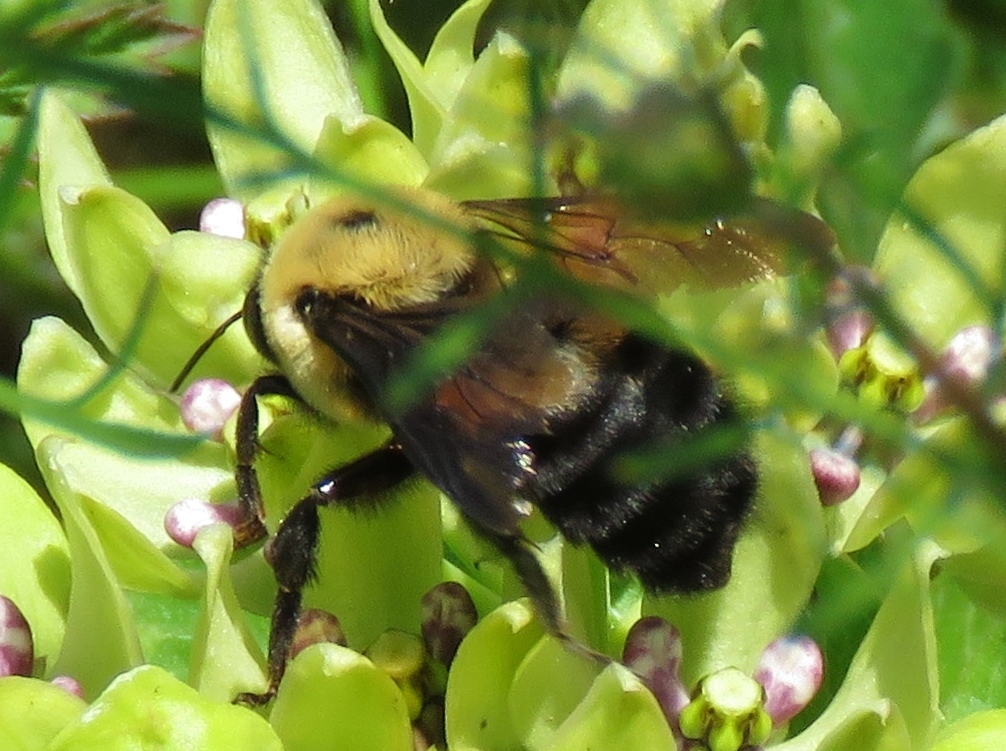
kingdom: Animalia
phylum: Arthropoda
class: Insecta
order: Hymenoptera
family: Apidae
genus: Bombus
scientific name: Bombus griseocollis
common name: Brown-belted bumble bee
